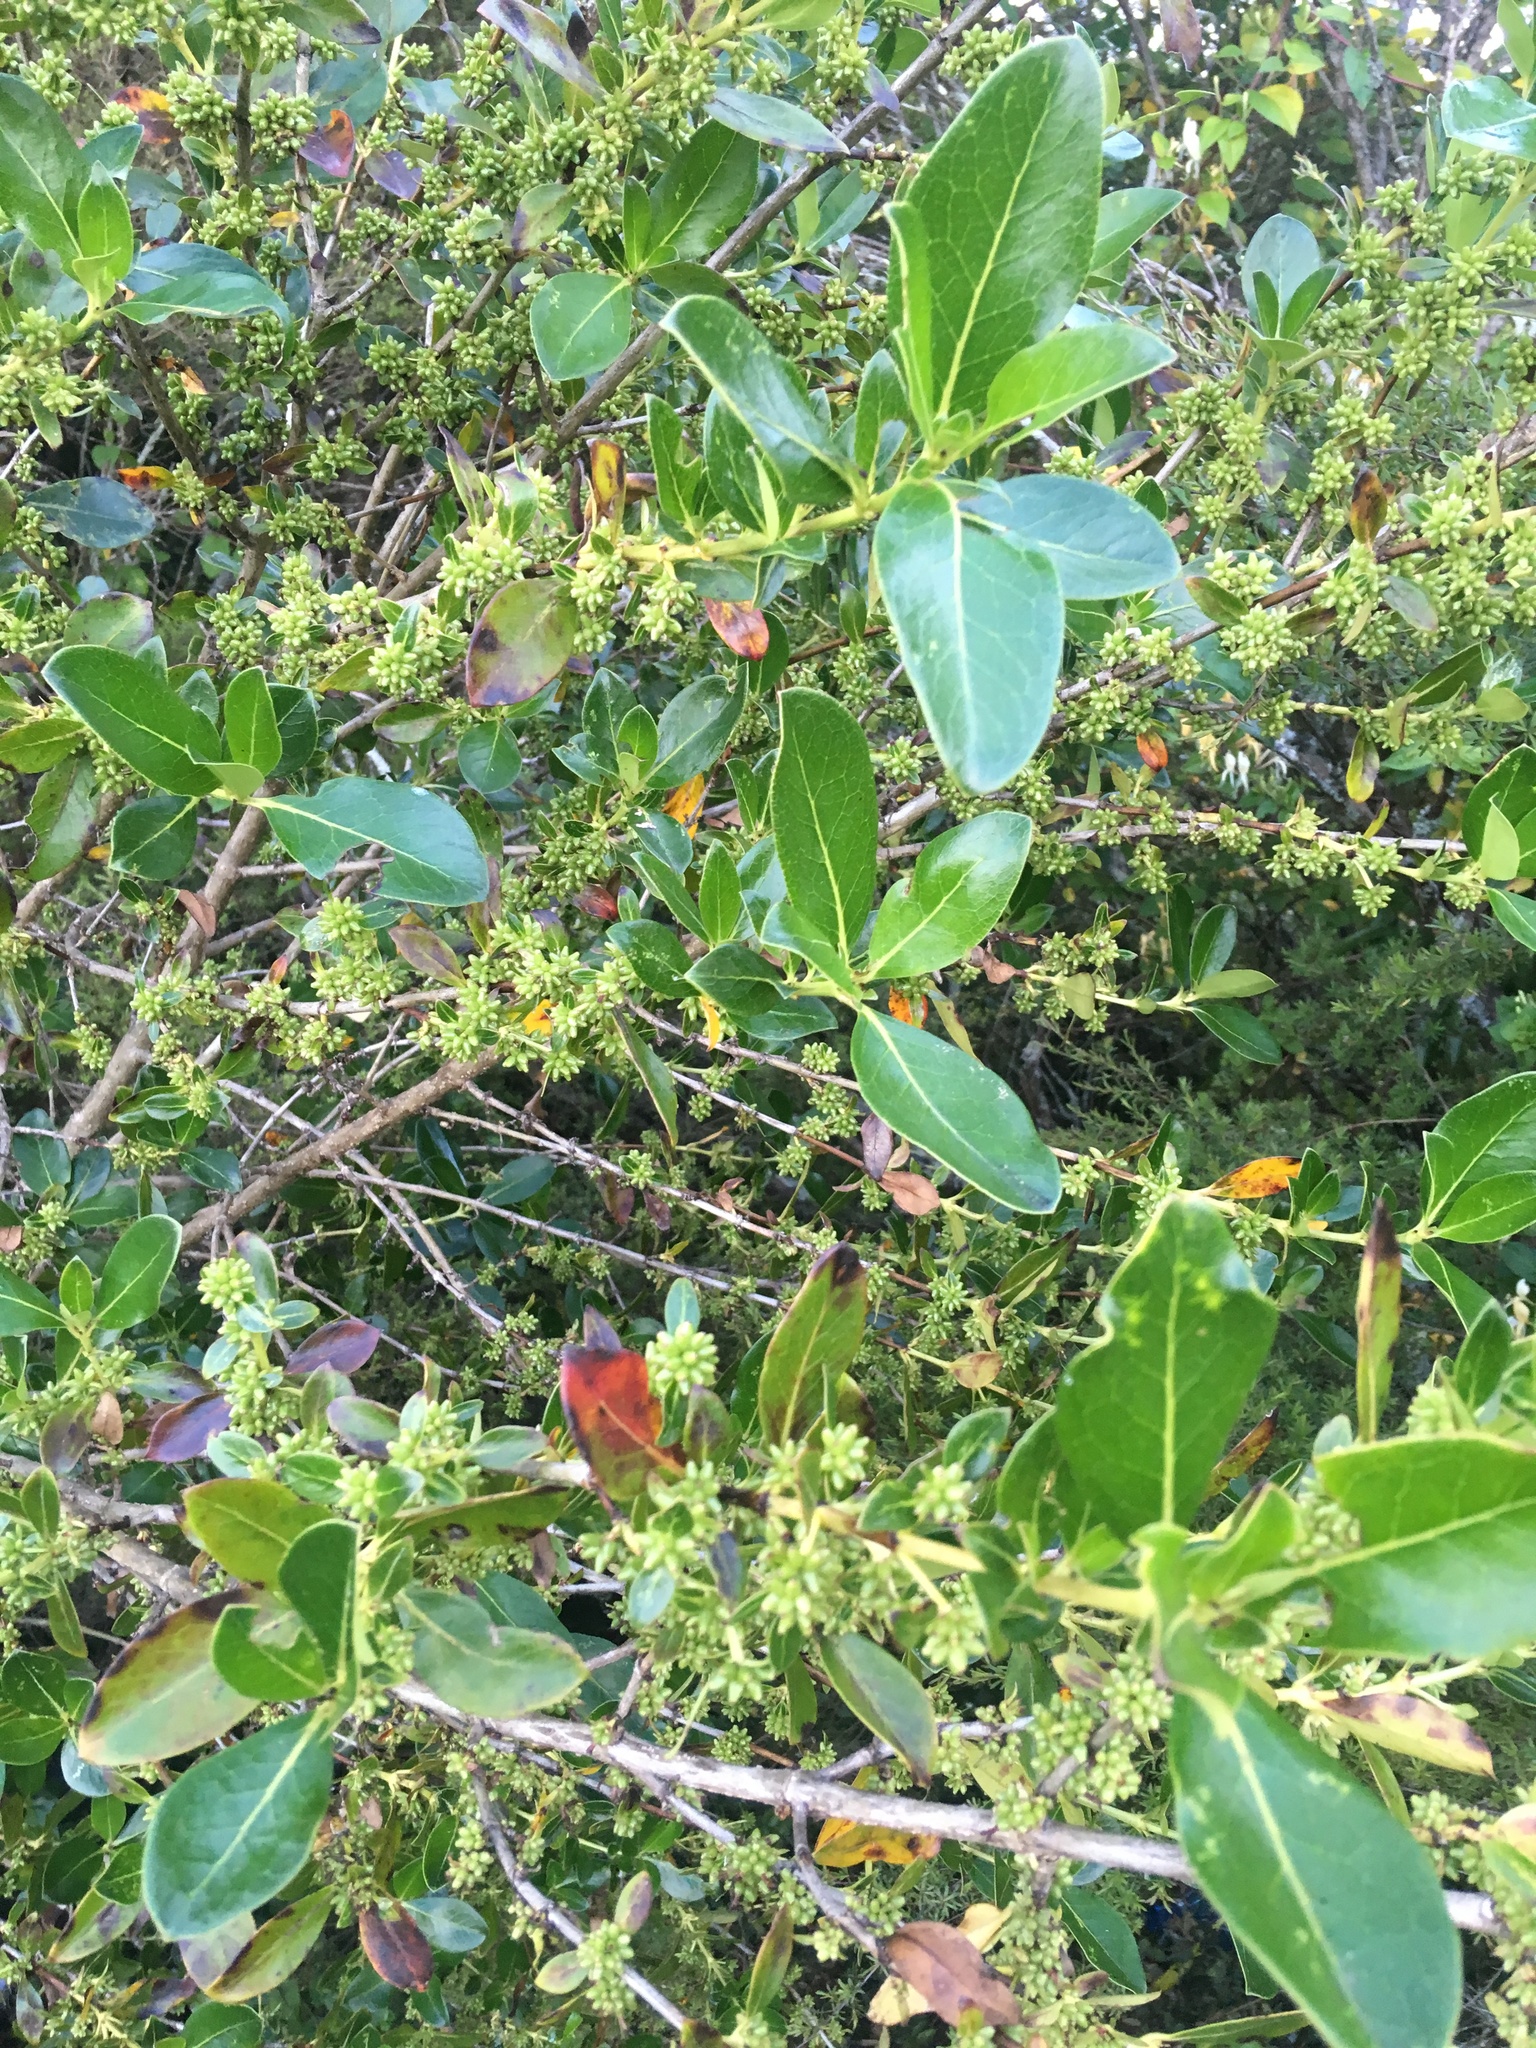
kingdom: Plantae
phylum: Tracheophyta
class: Magnoliopsida
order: Gentianales
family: Rubiaceae
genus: Coprosma
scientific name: Coprosma robusta
